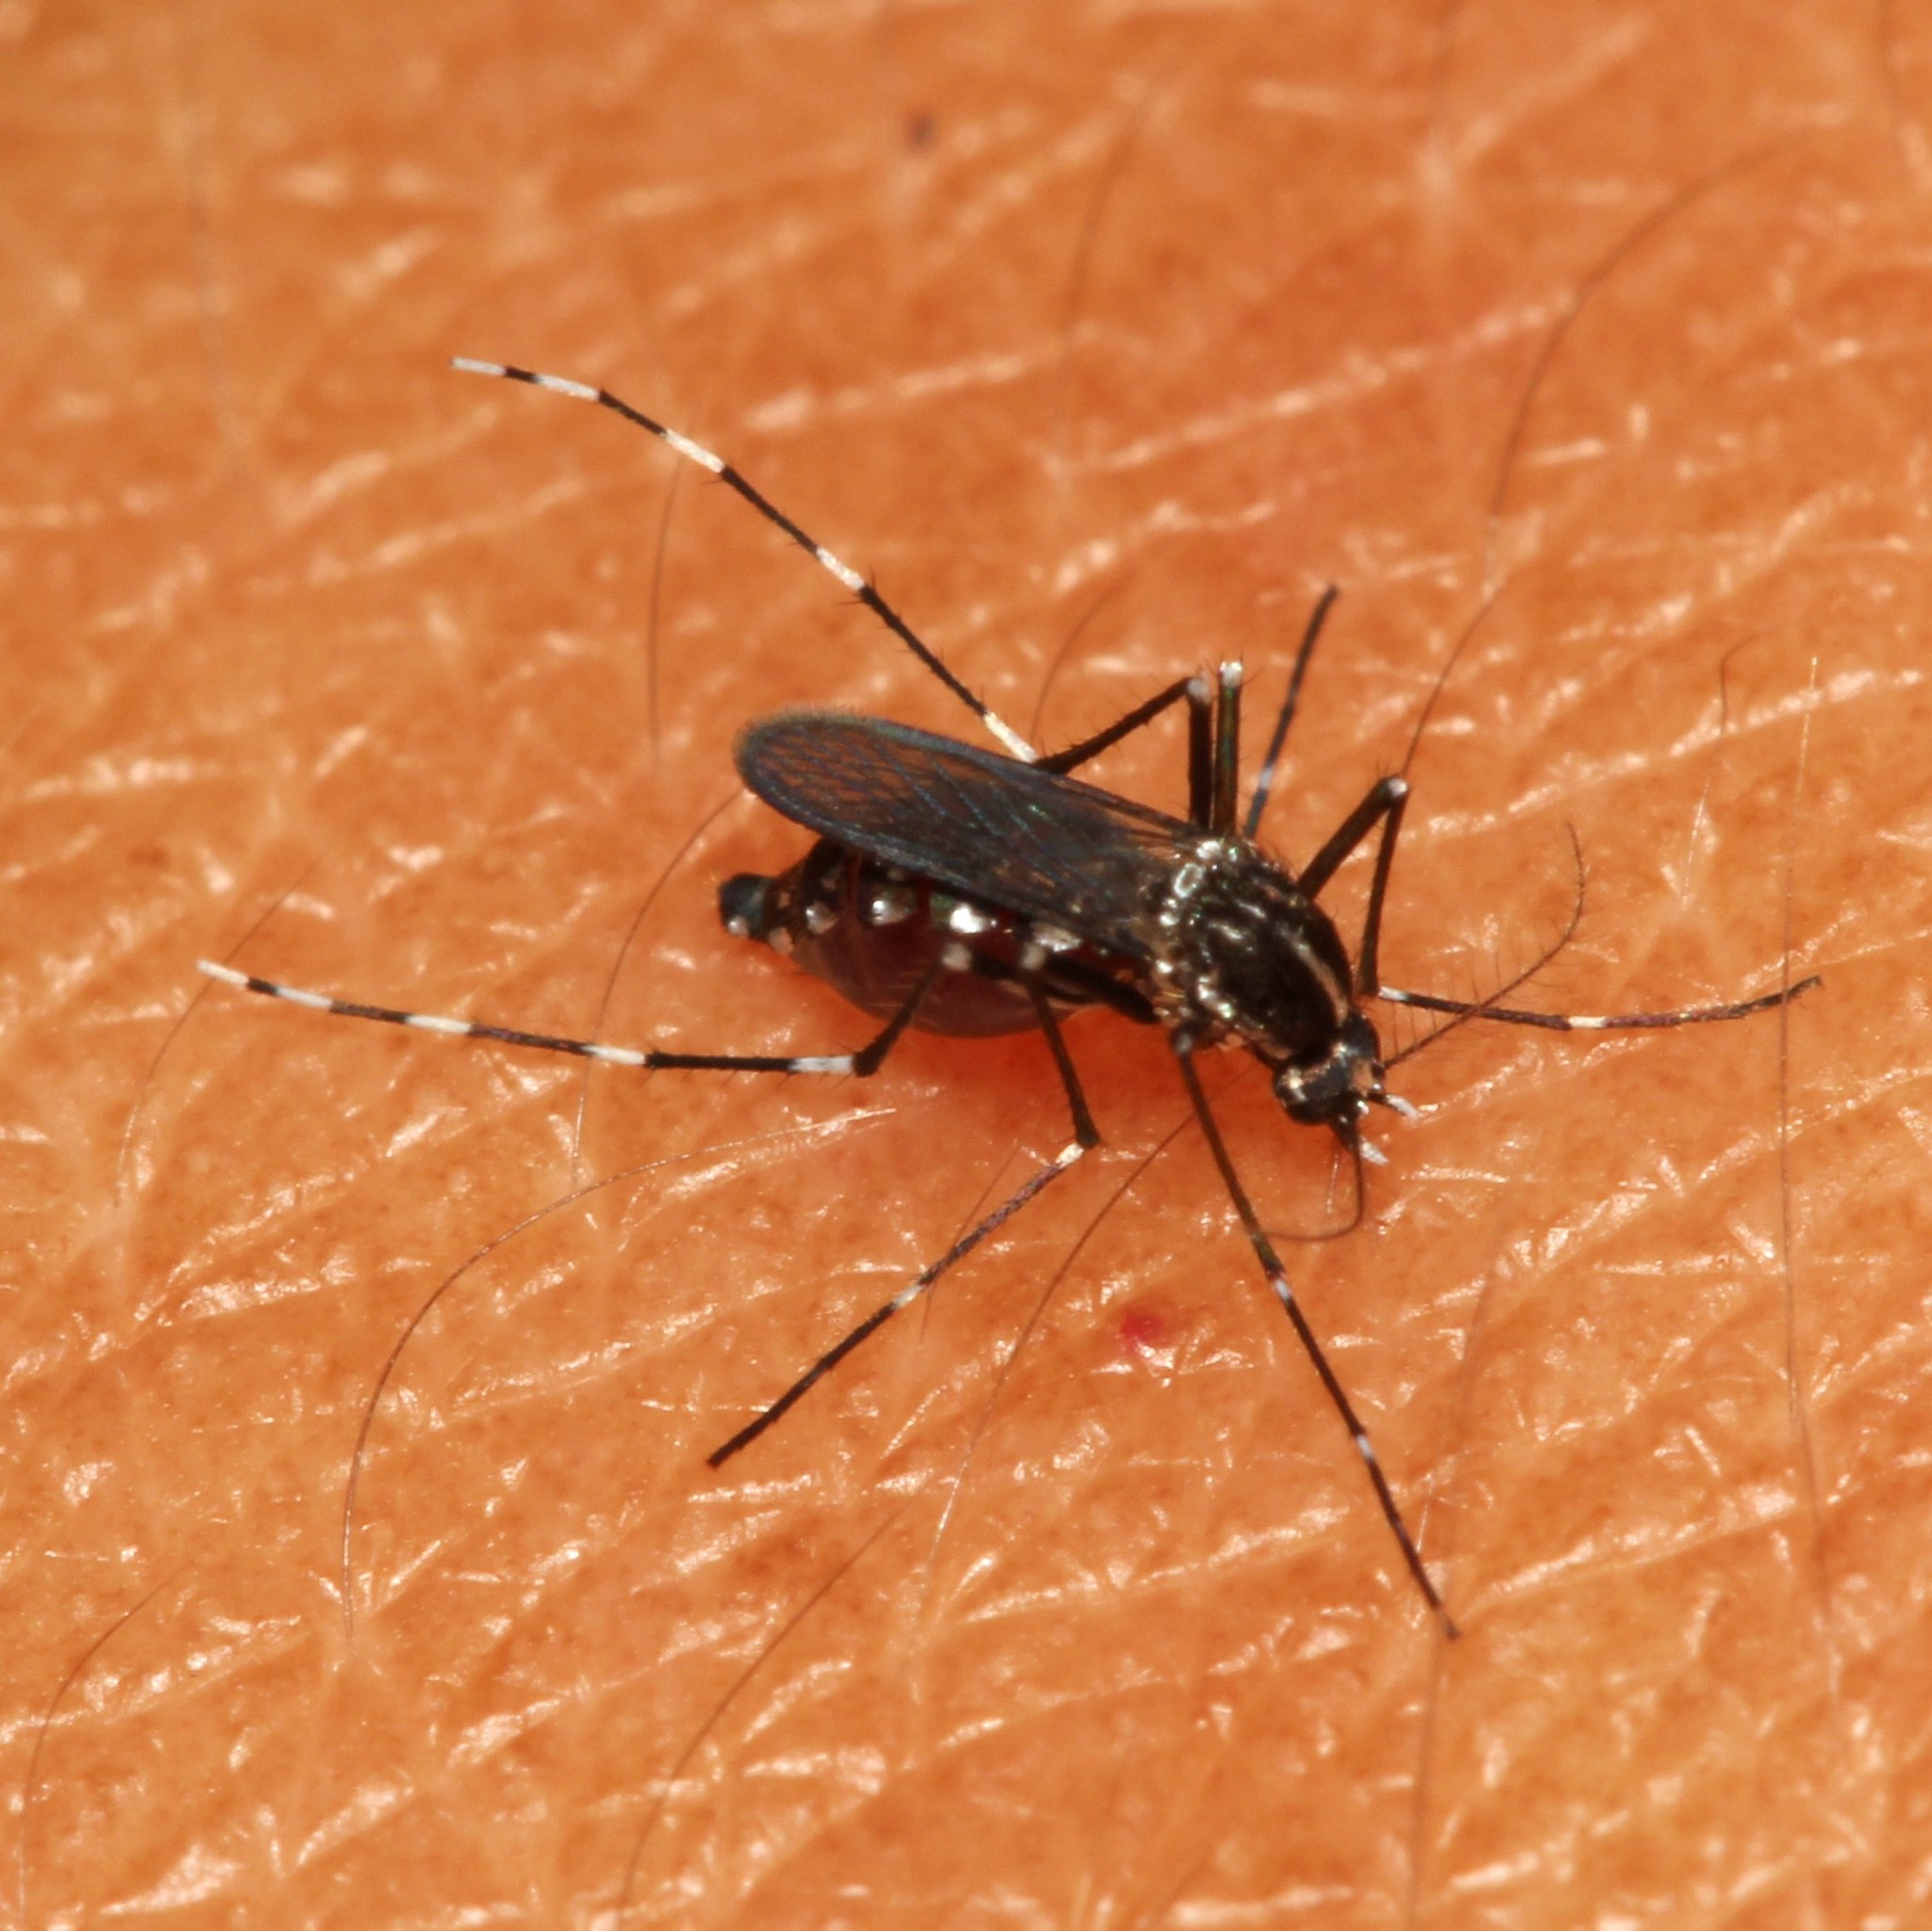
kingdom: Animalia
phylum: Arthropoda
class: Insecta
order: Diptera
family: Culicidae
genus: Aedes
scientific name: Aedes albopictus
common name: Tiger mosquito
